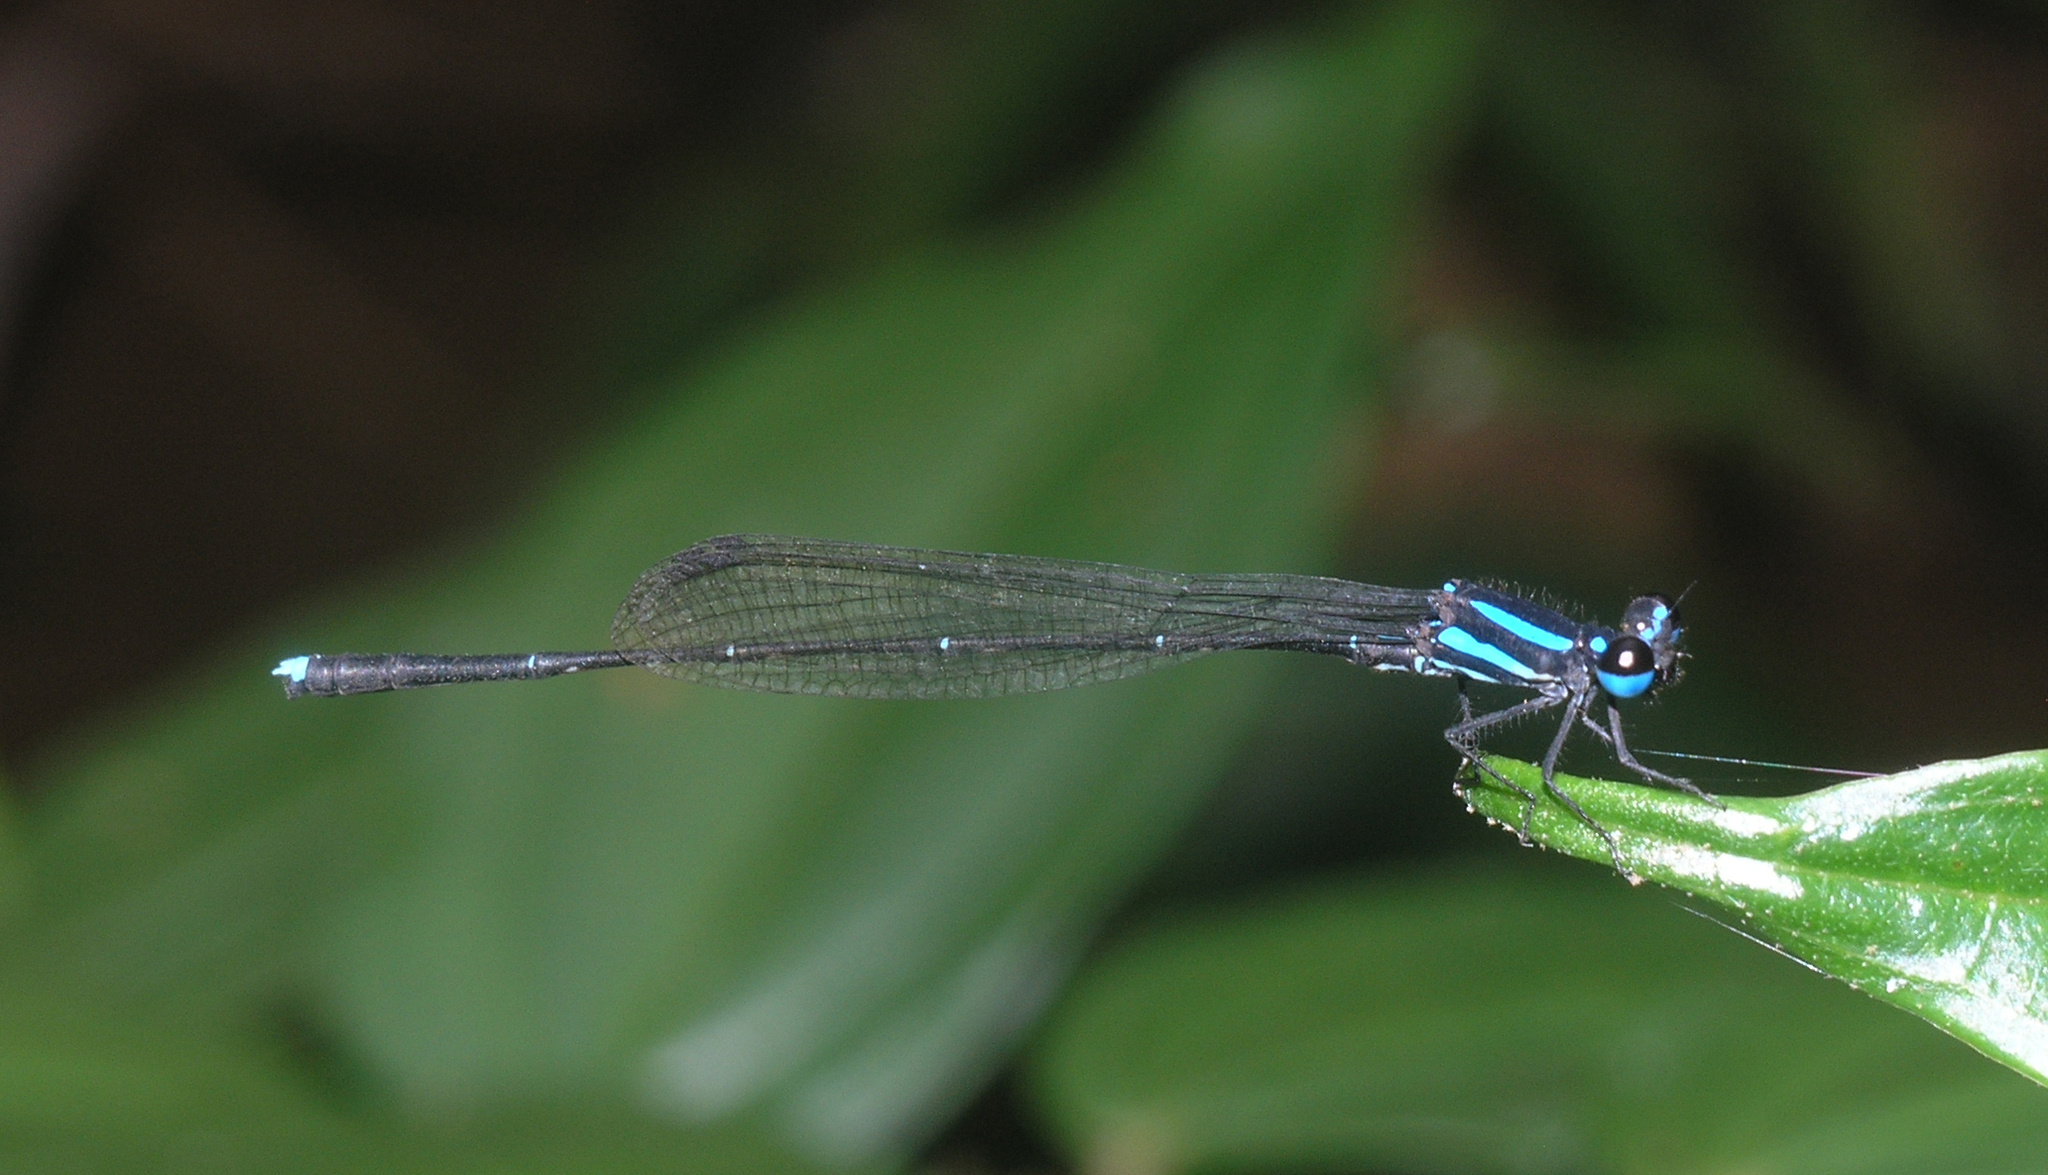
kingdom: Animalia
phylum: Arthropoda
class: Insecta
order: Odonata
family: Platycnemididae
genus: Prodasineura
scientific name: Prodasineura hoffmanni
